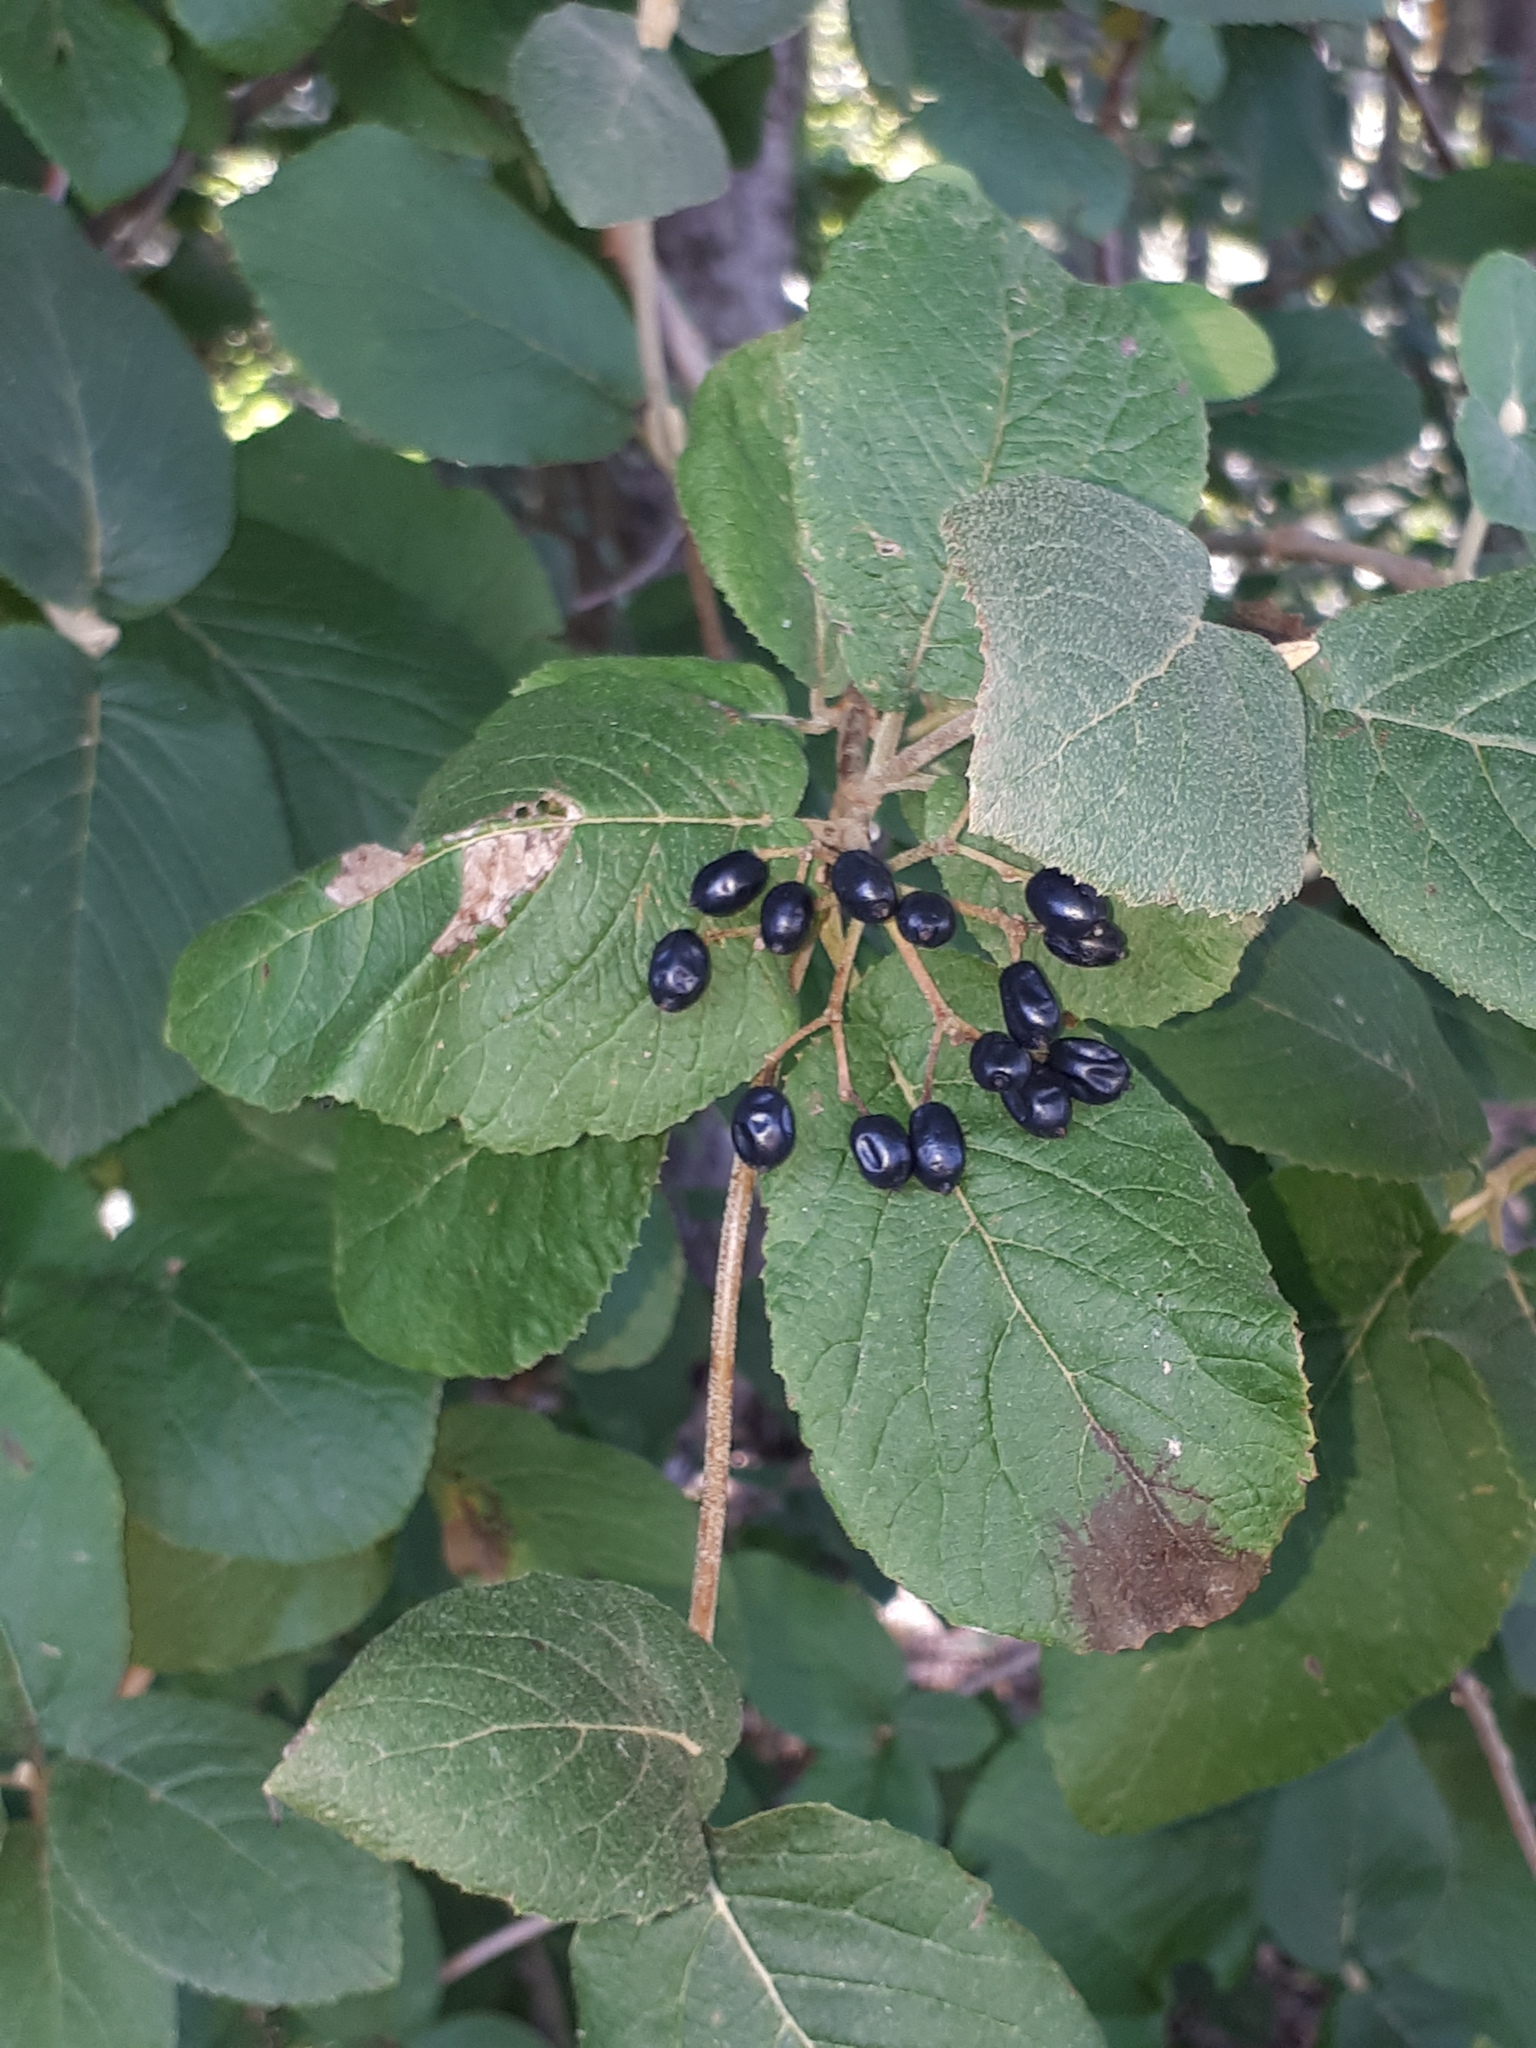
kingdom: Plantae
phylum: Tracheophyta
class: Magnoliopsida
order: Dipsacales
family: Viburnaceae
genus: Viburnum
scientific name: Viburnum lantana
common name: Wayfaring tree
